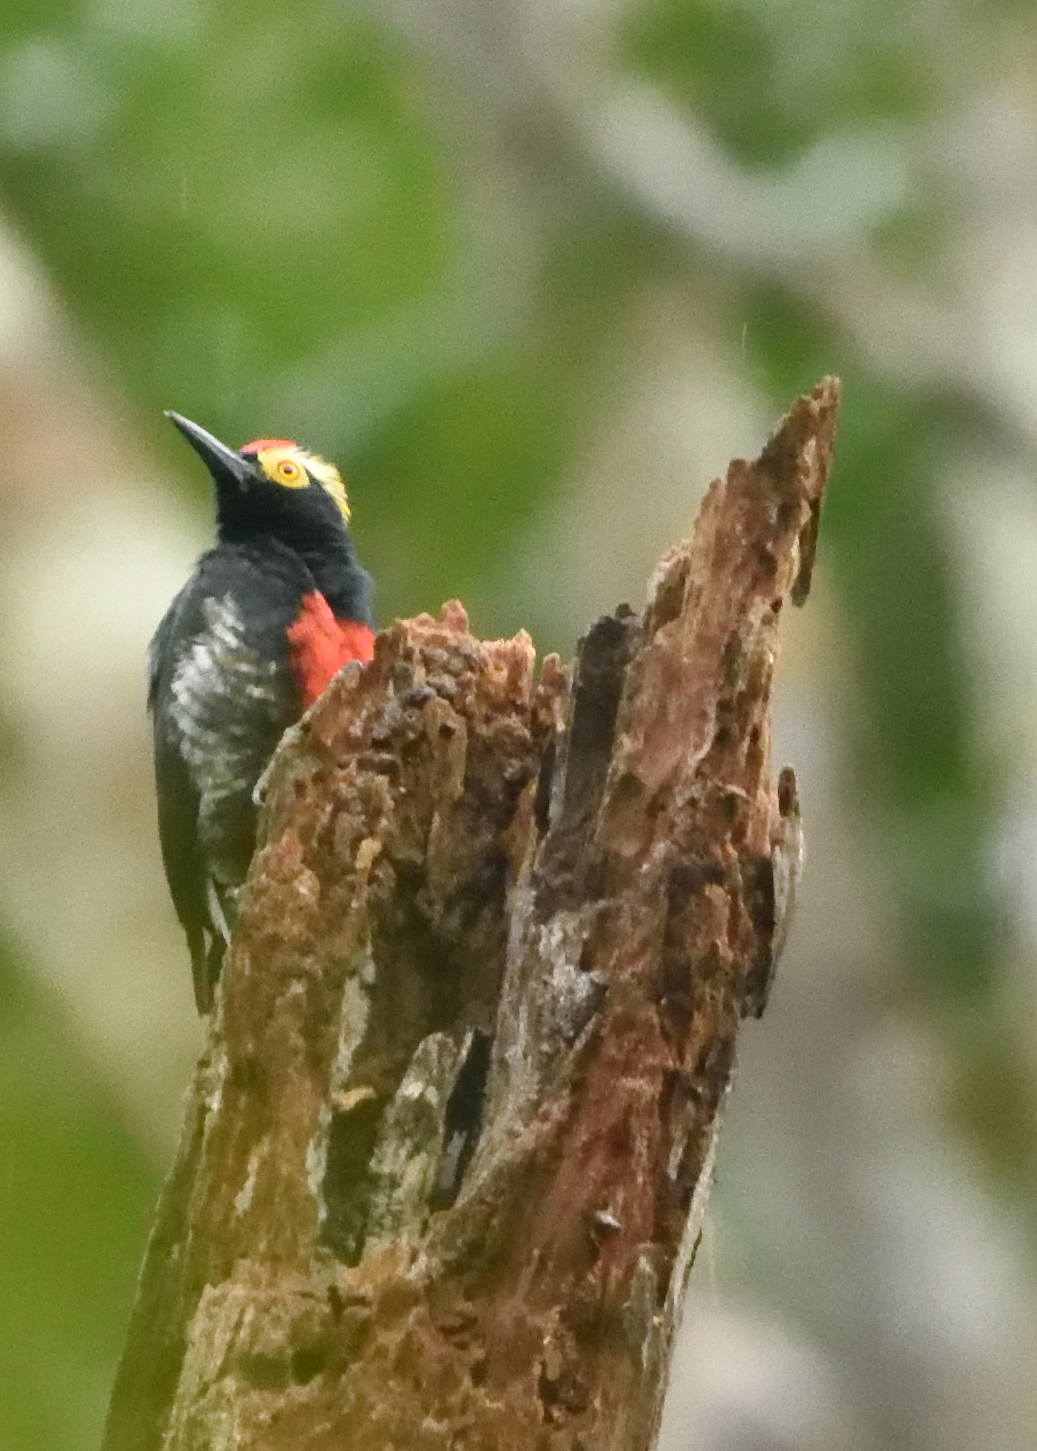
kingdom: Animalia
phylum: Chordata
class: Aves
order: Piciformes
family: Picidae
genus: Melanerpes
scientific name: Melanerpes cruentatus
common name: Yellow-tufted woodpecker
